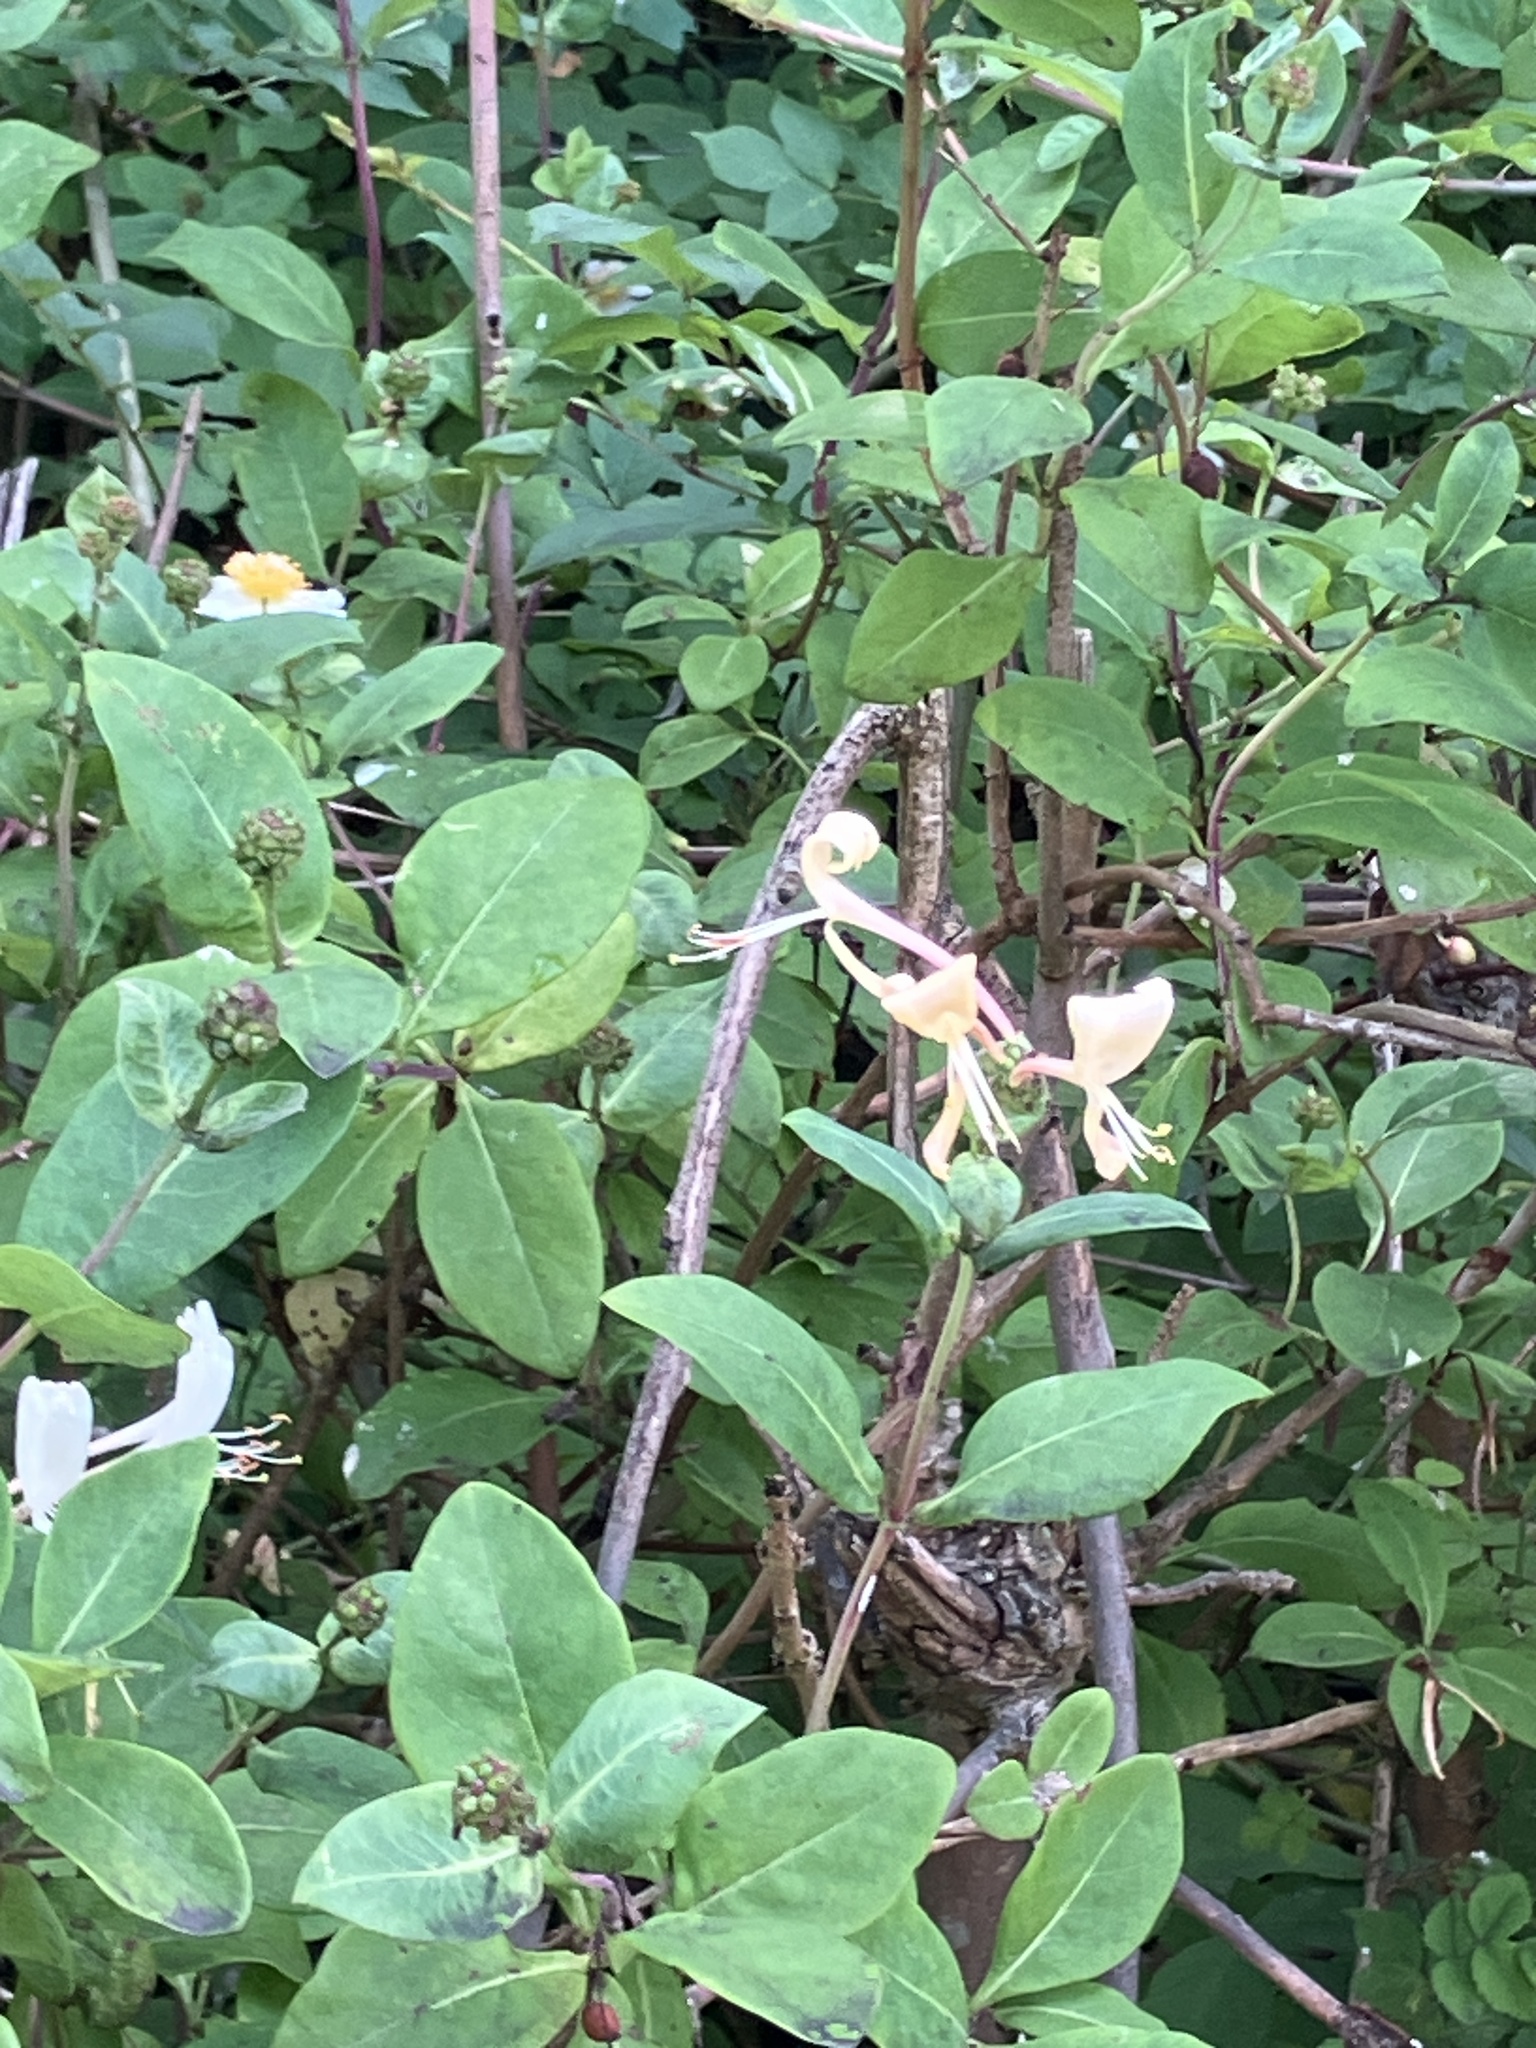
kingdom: Plantae
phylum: Tracheophyta
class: Magnoliopsida
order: Dipsacales
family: Caprifoliaceae
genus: Lonicera
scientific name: Lonicera periclymenum
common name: European honeysuckle
